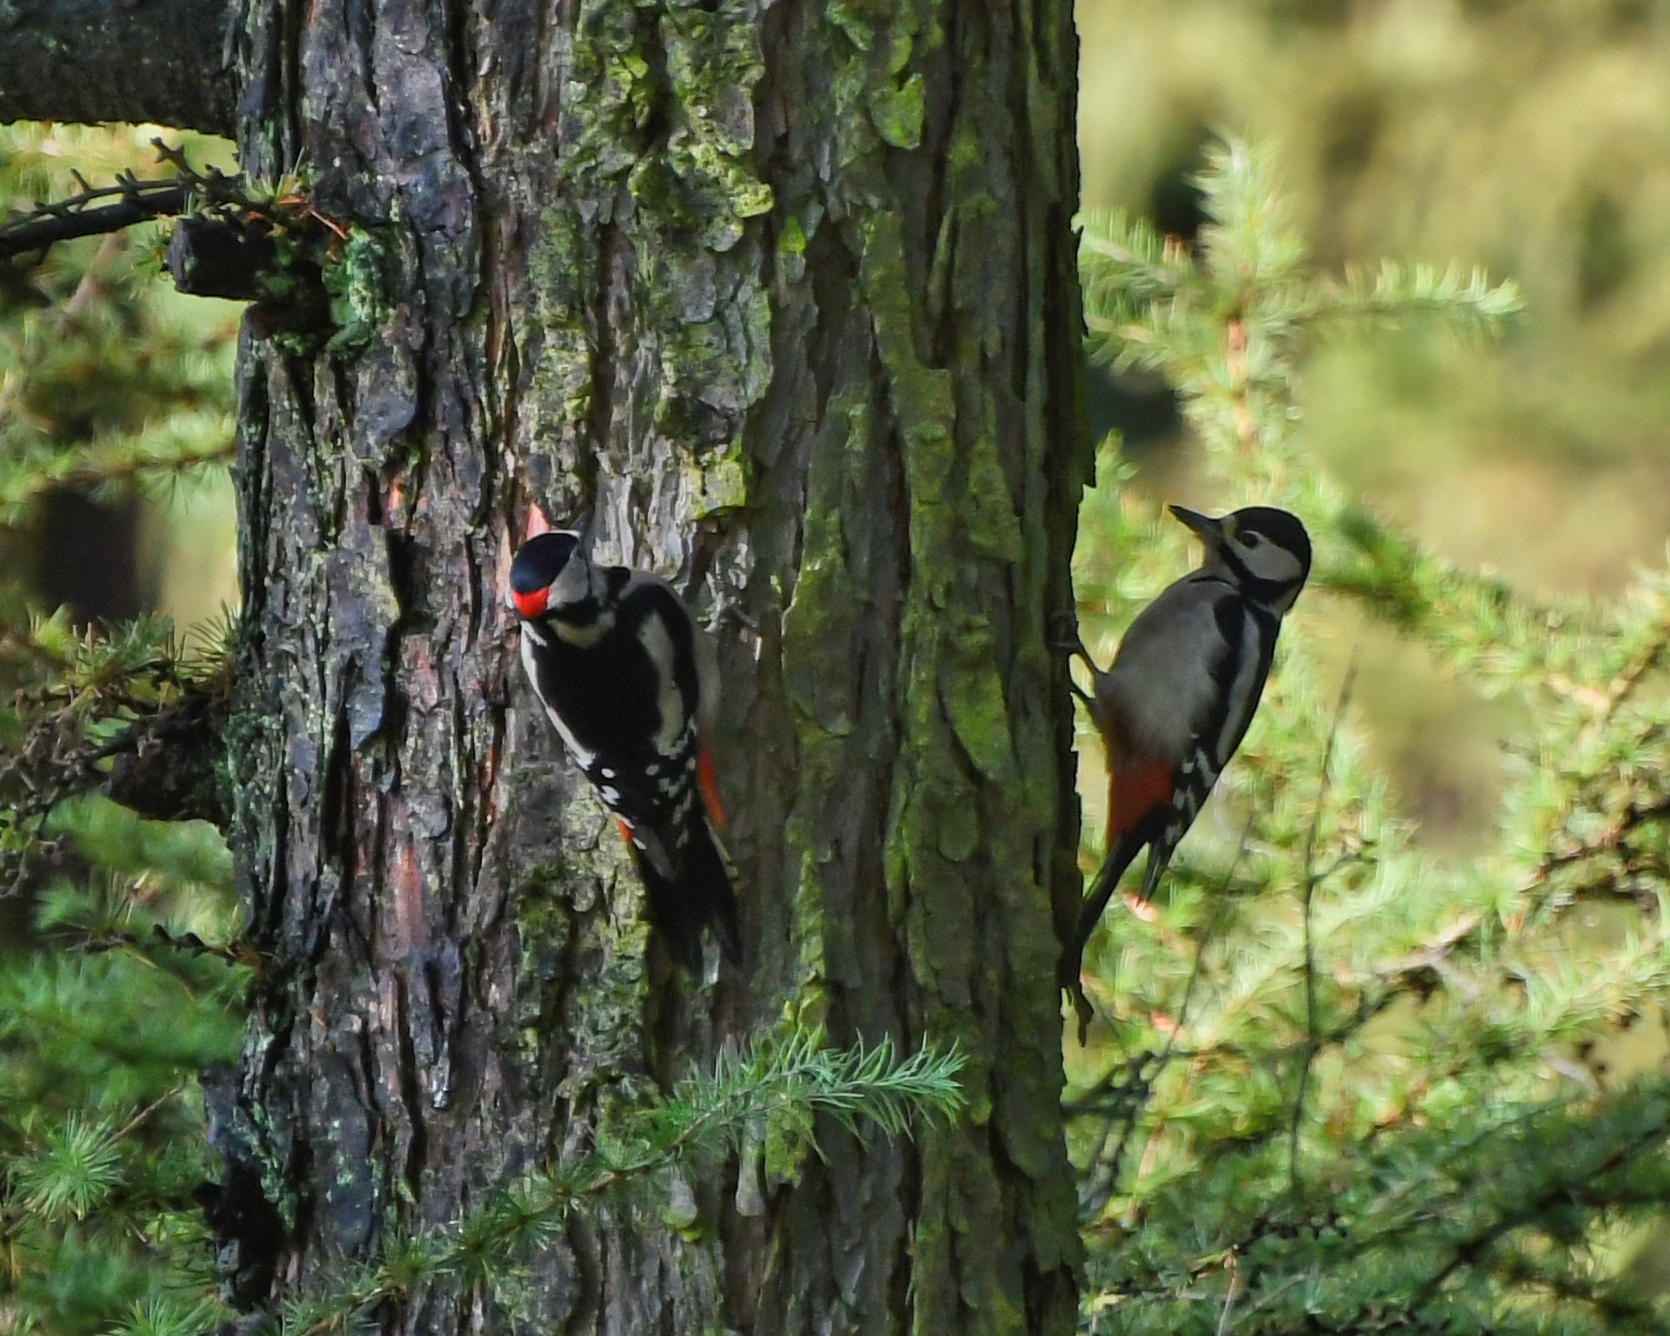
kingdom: Animalia
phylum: Chordata
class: Aves
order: Piciformes
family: Picidae
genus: Dendrocopos
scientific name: Dendrocopos major
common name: Great spotted woodpecker
